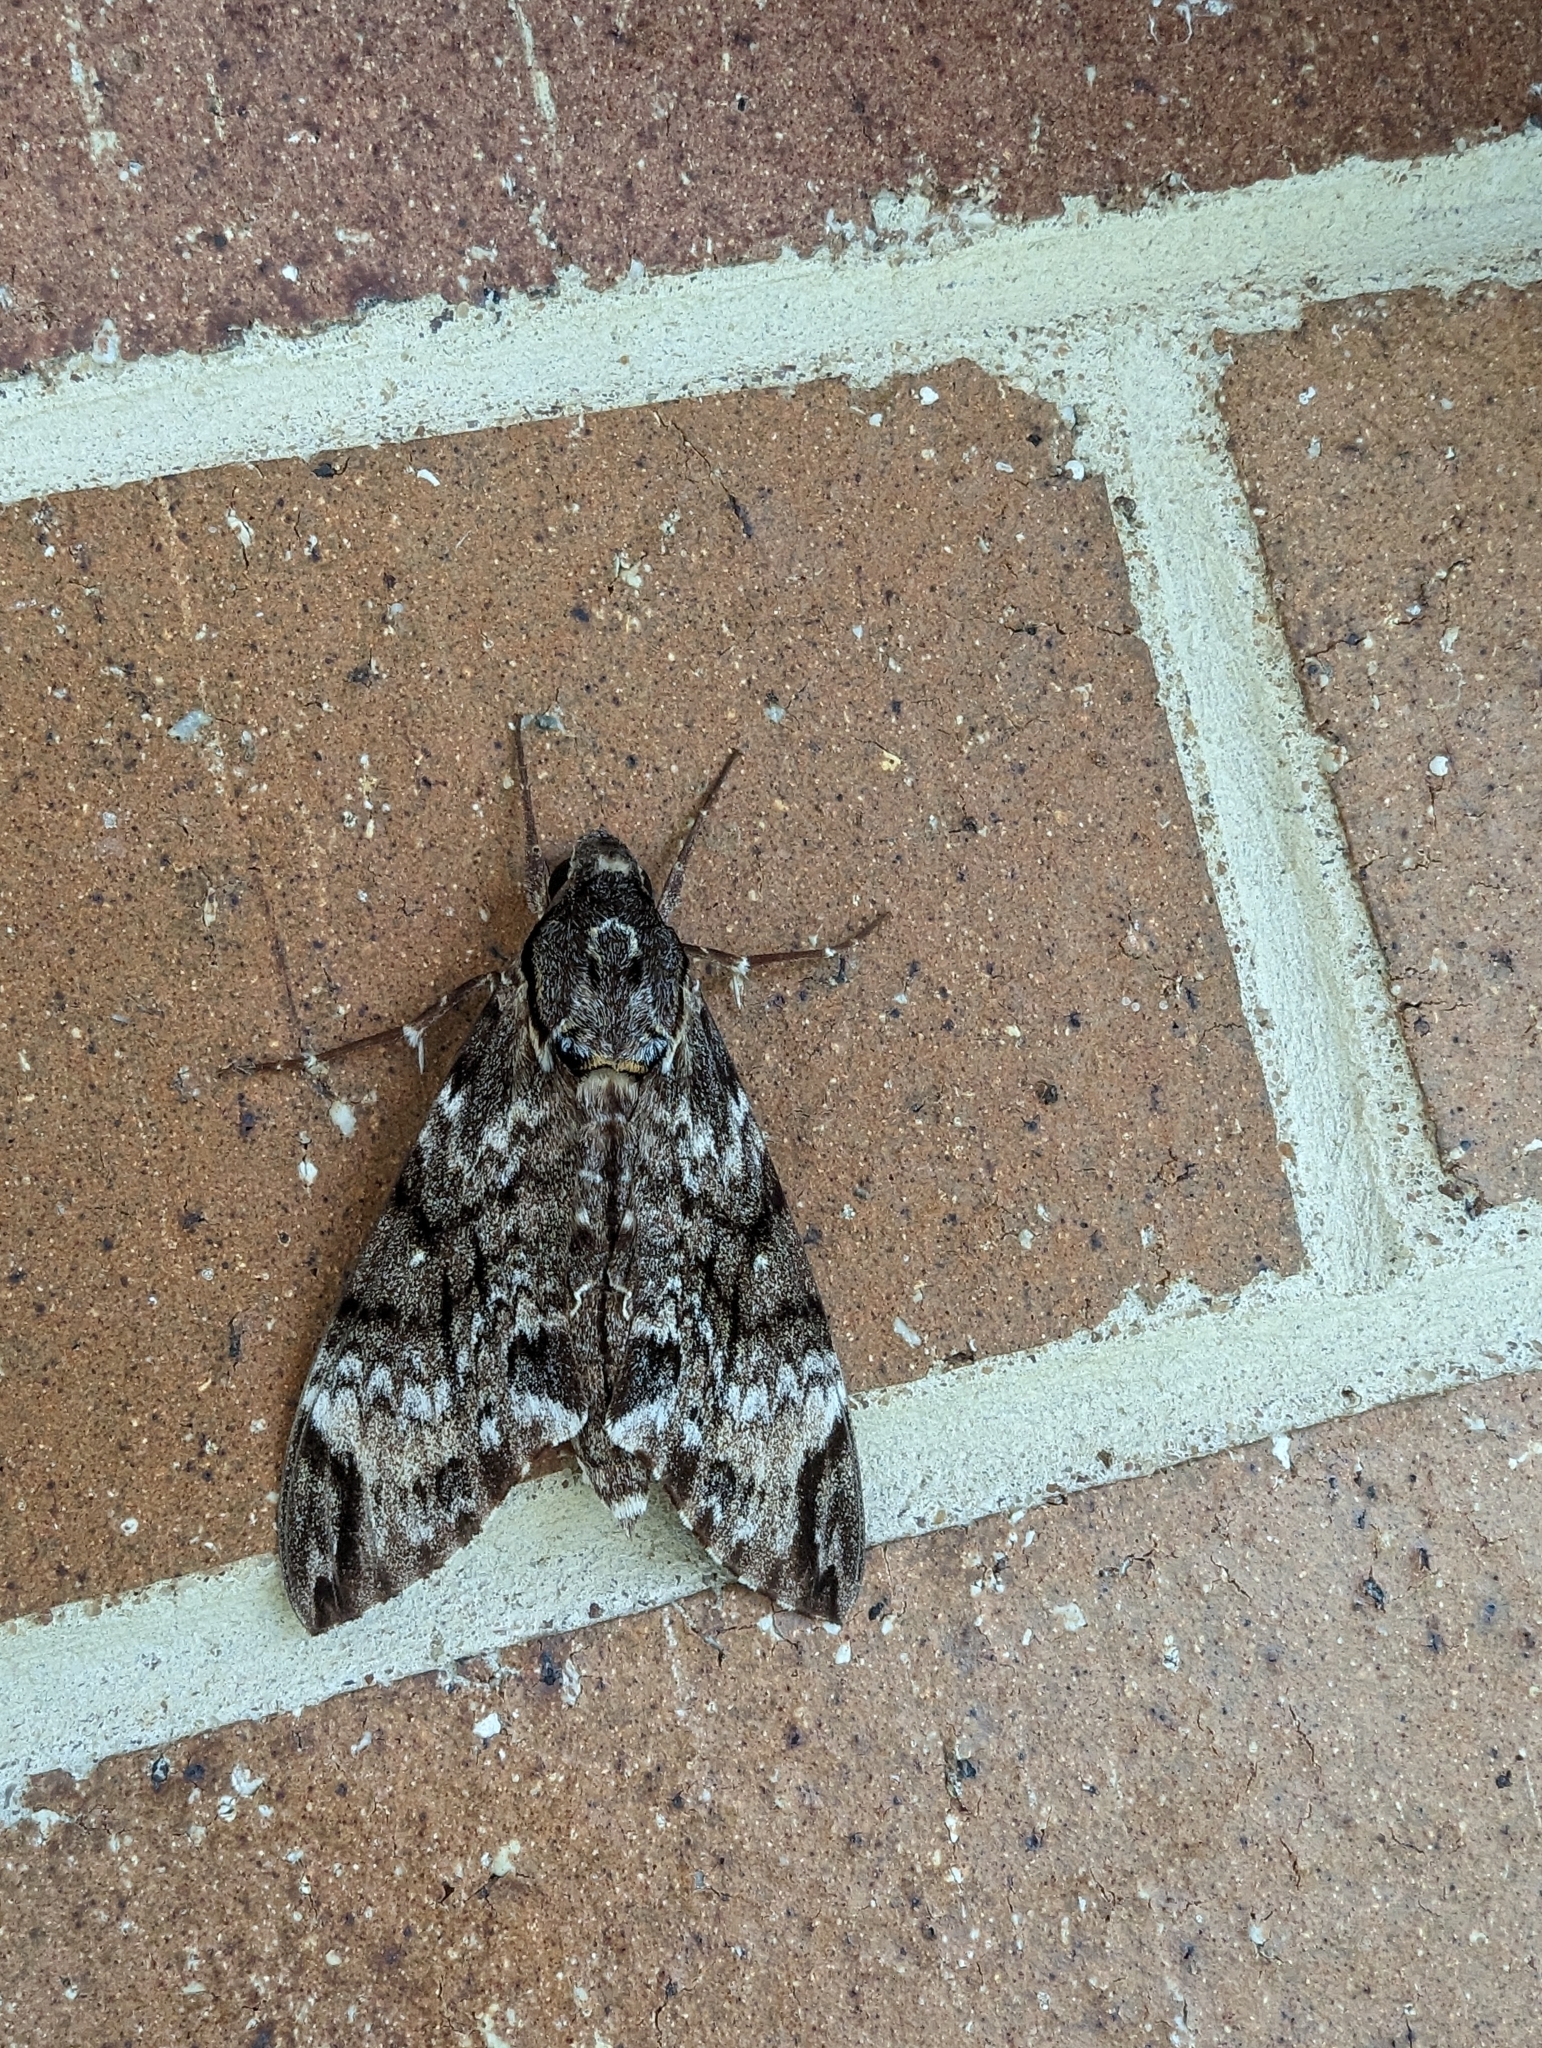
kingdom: Animalia
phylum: Arthropoda
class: Insecta
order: Lepidoptera
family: Sphingidae
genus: Psilogramma
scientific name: Psilogramma menephron
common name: Gray hawk moth
